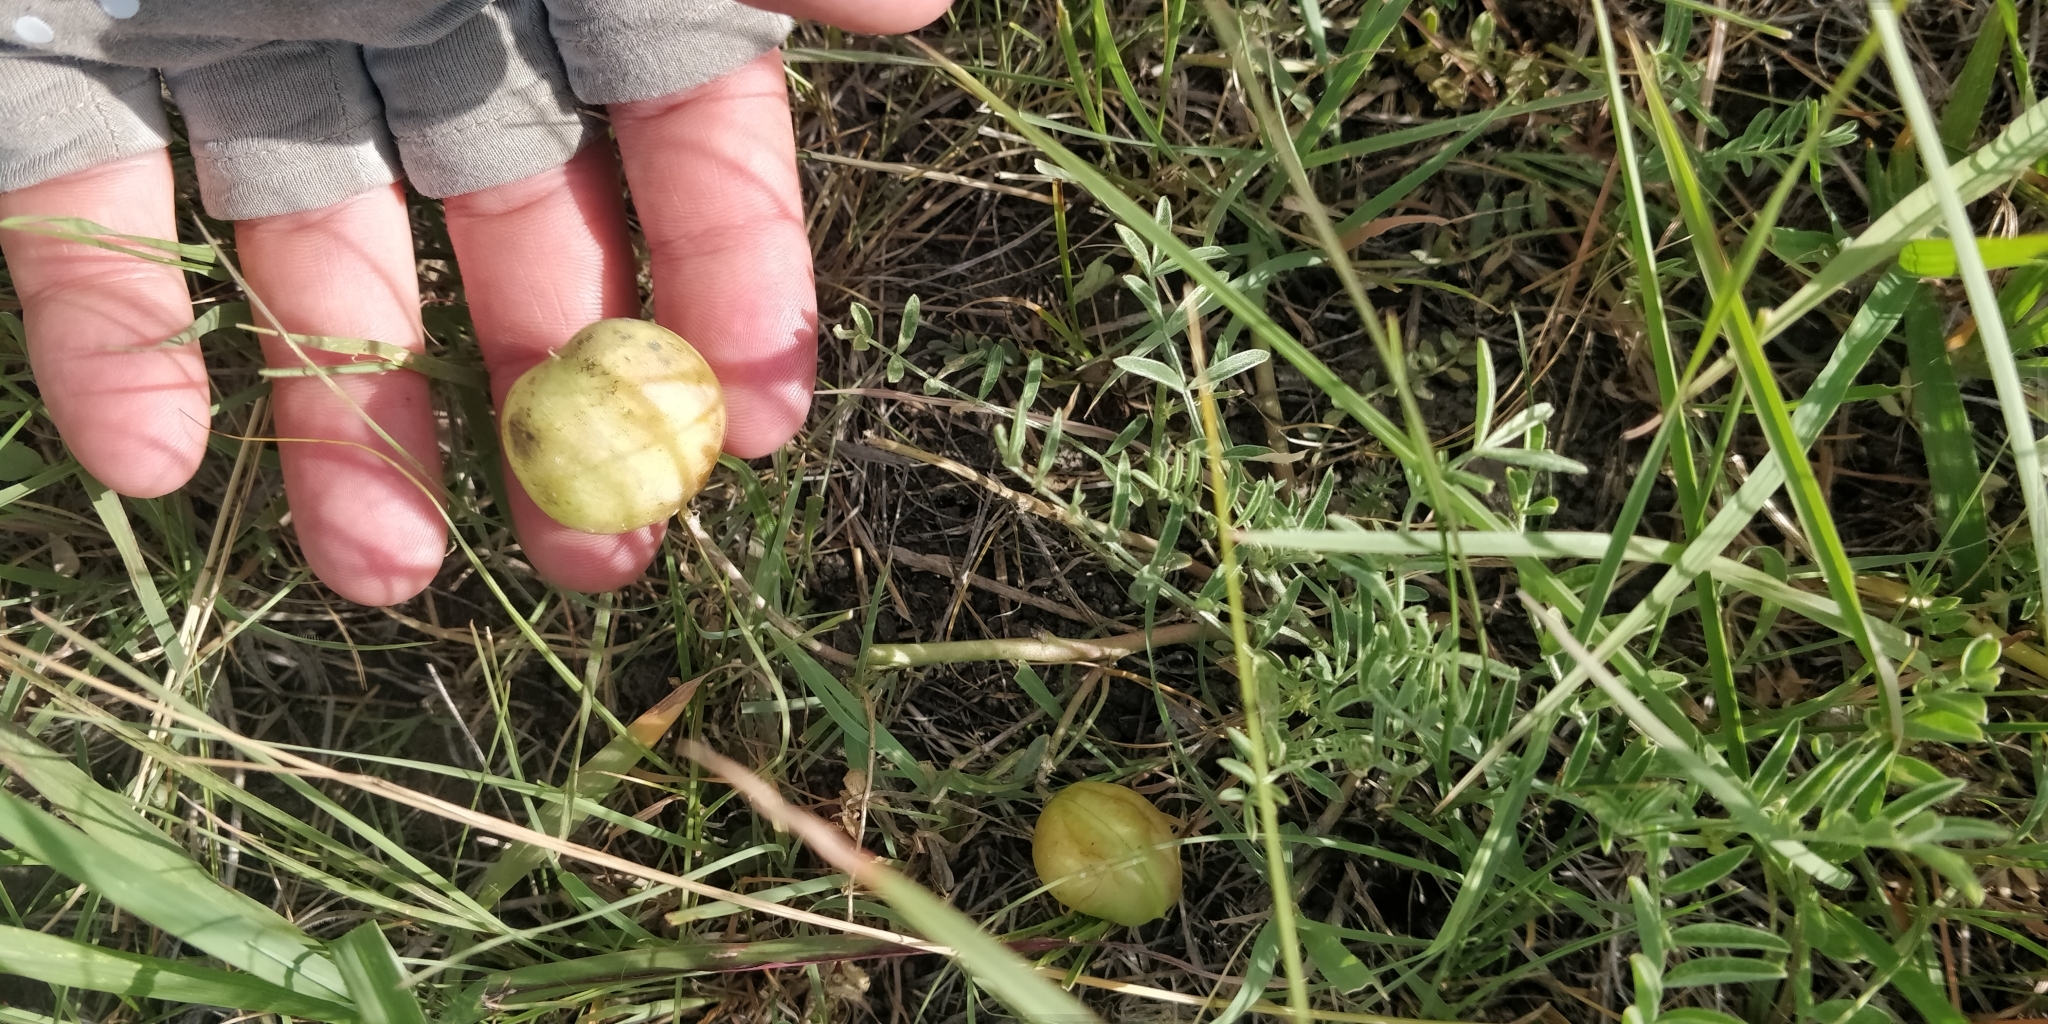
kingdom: Plantae
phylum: Tracheophyta
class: Magnoliopsida
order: Fabales
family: Fabaceae
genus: Astragalus
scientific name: Astragalus crassicarpus
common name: Ground-plum milk-vetch
